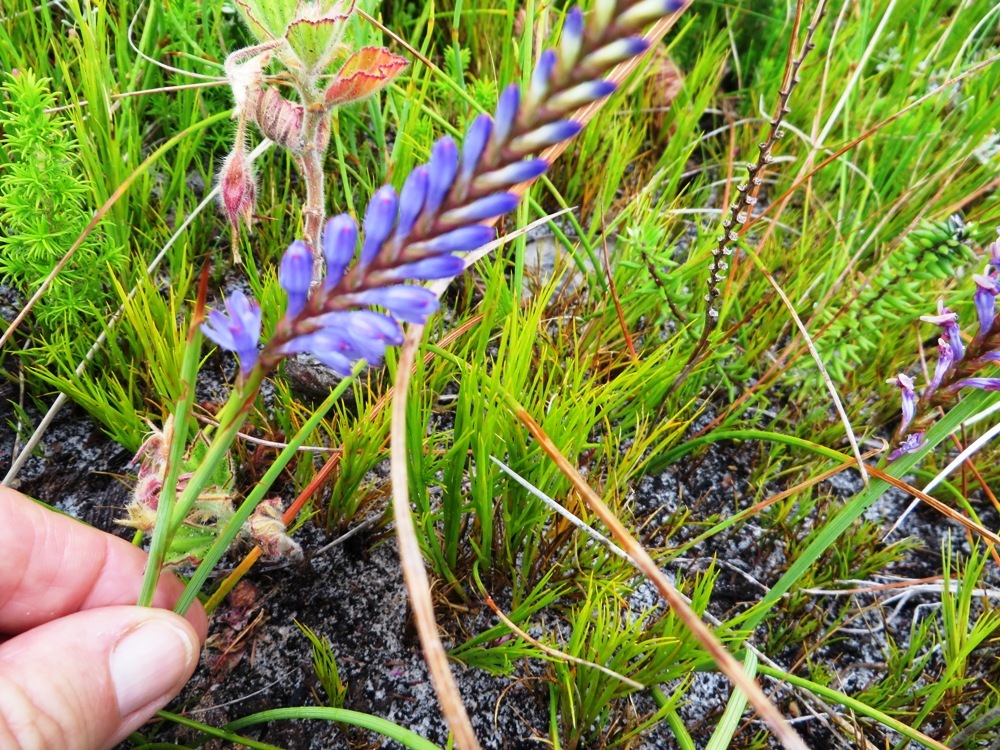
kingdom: Plantae
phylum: Tracheophyta
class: Liliopsida
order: Asparagales
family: Iridaceae
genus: Micranthus
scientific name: Micranthus alopecuroides
